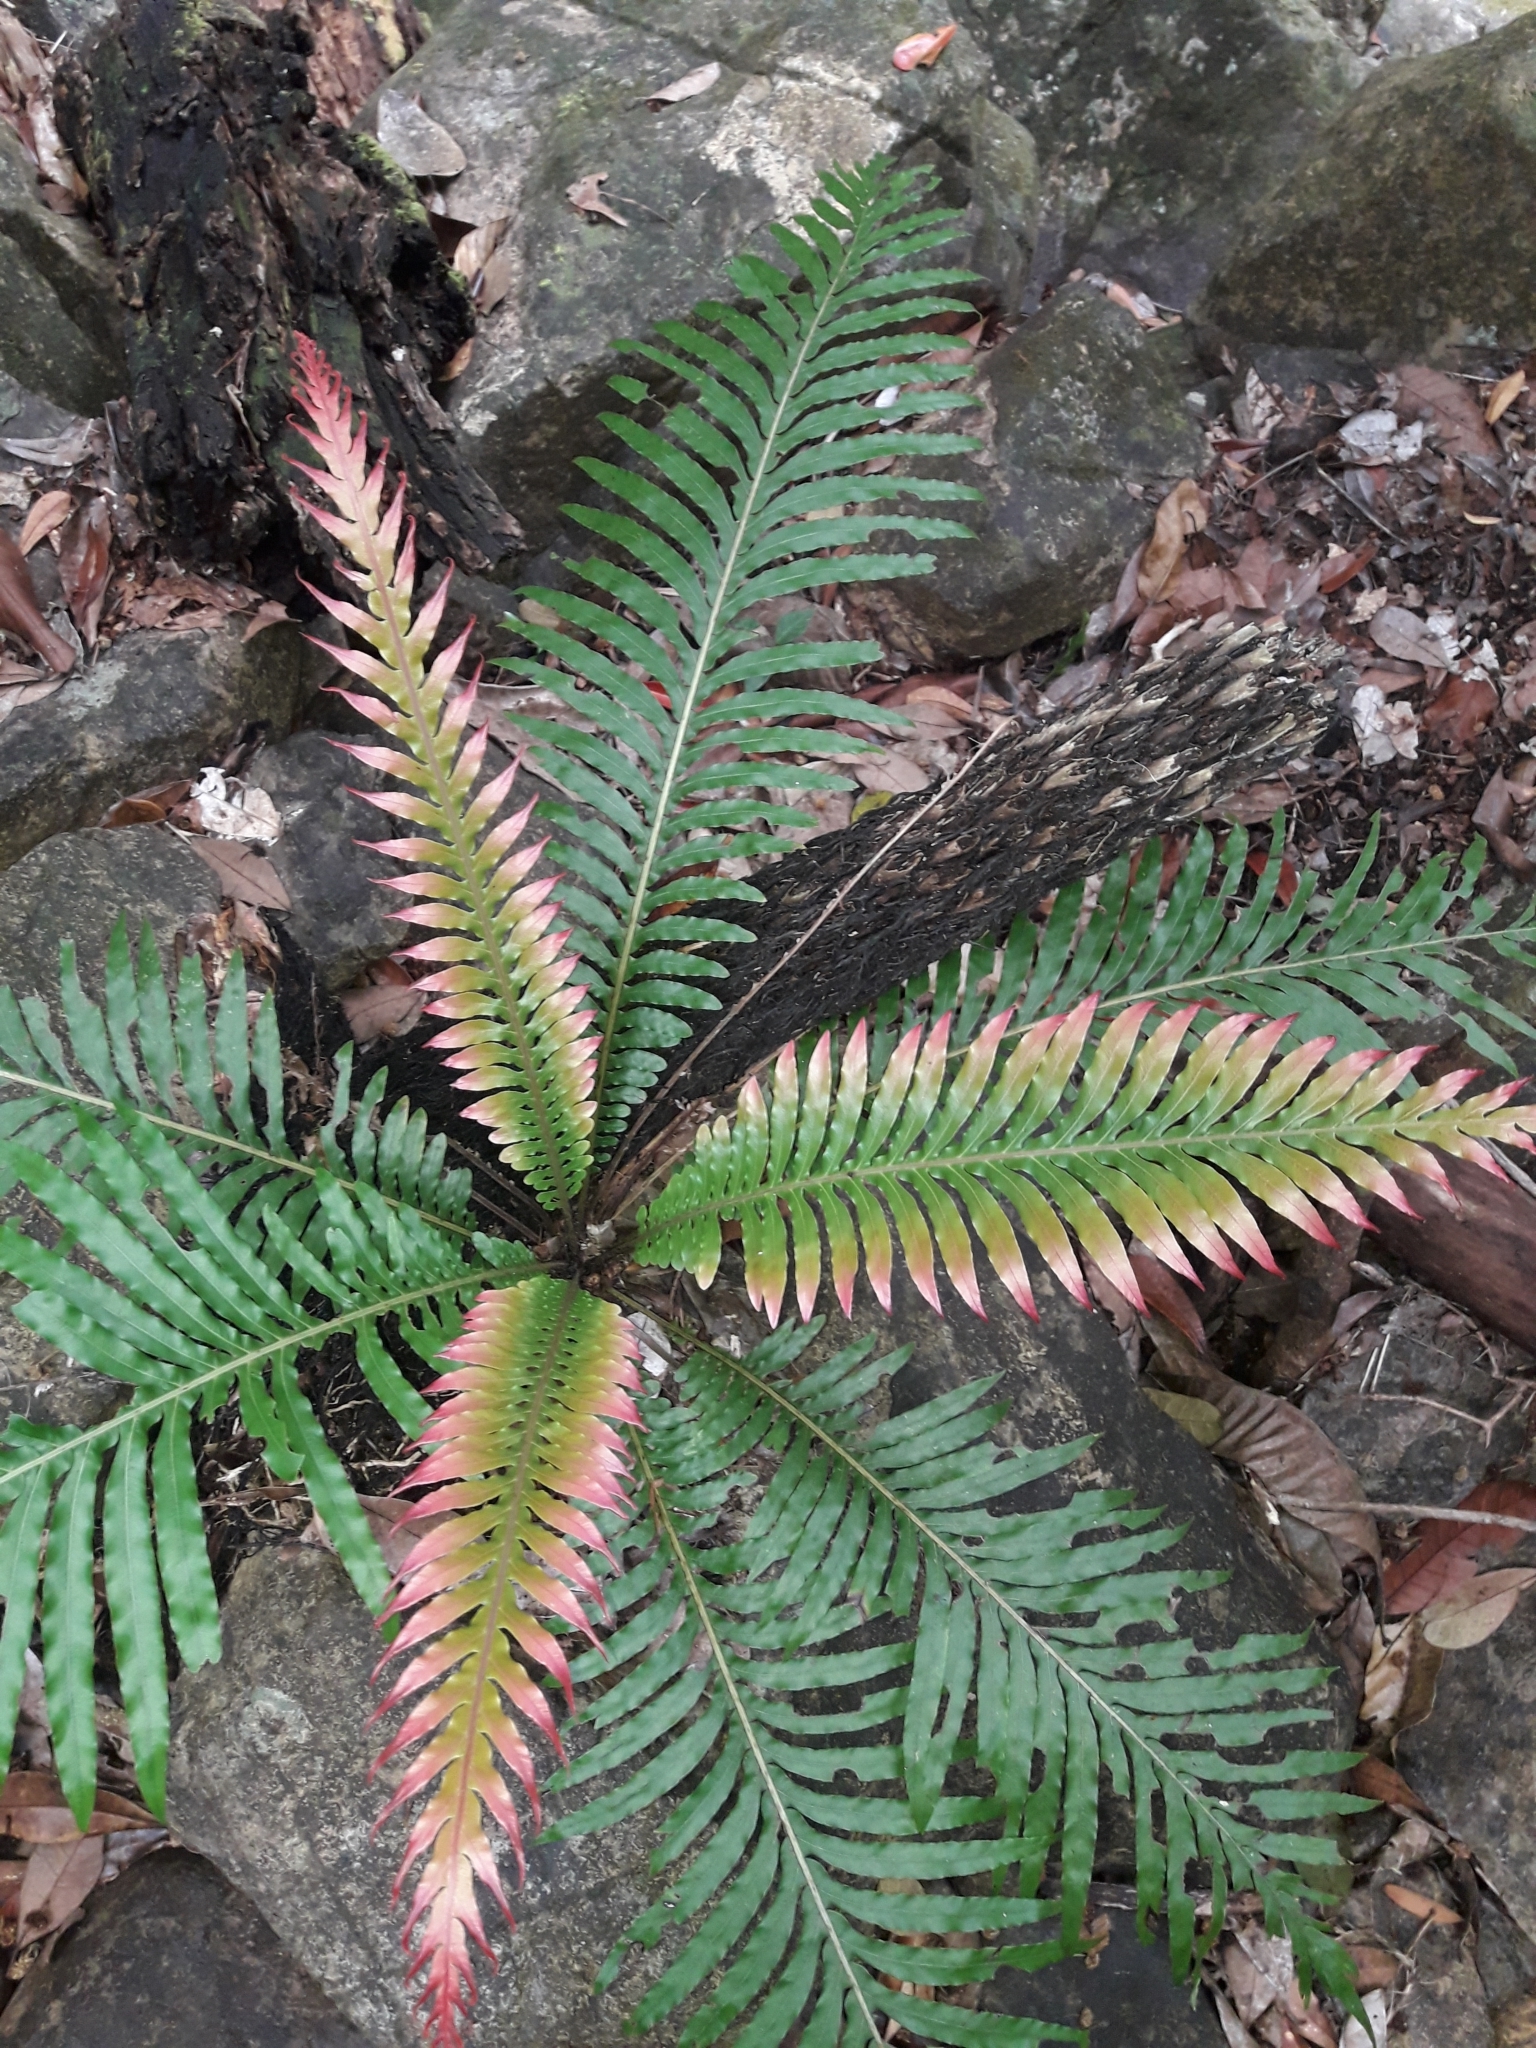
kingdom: Plantae
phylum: Tracheophyta
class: Polypodiopsida
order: Polypodiales
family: Blechnaceae
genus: Oceaniopteris
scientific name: Oceaniopteris gibba
